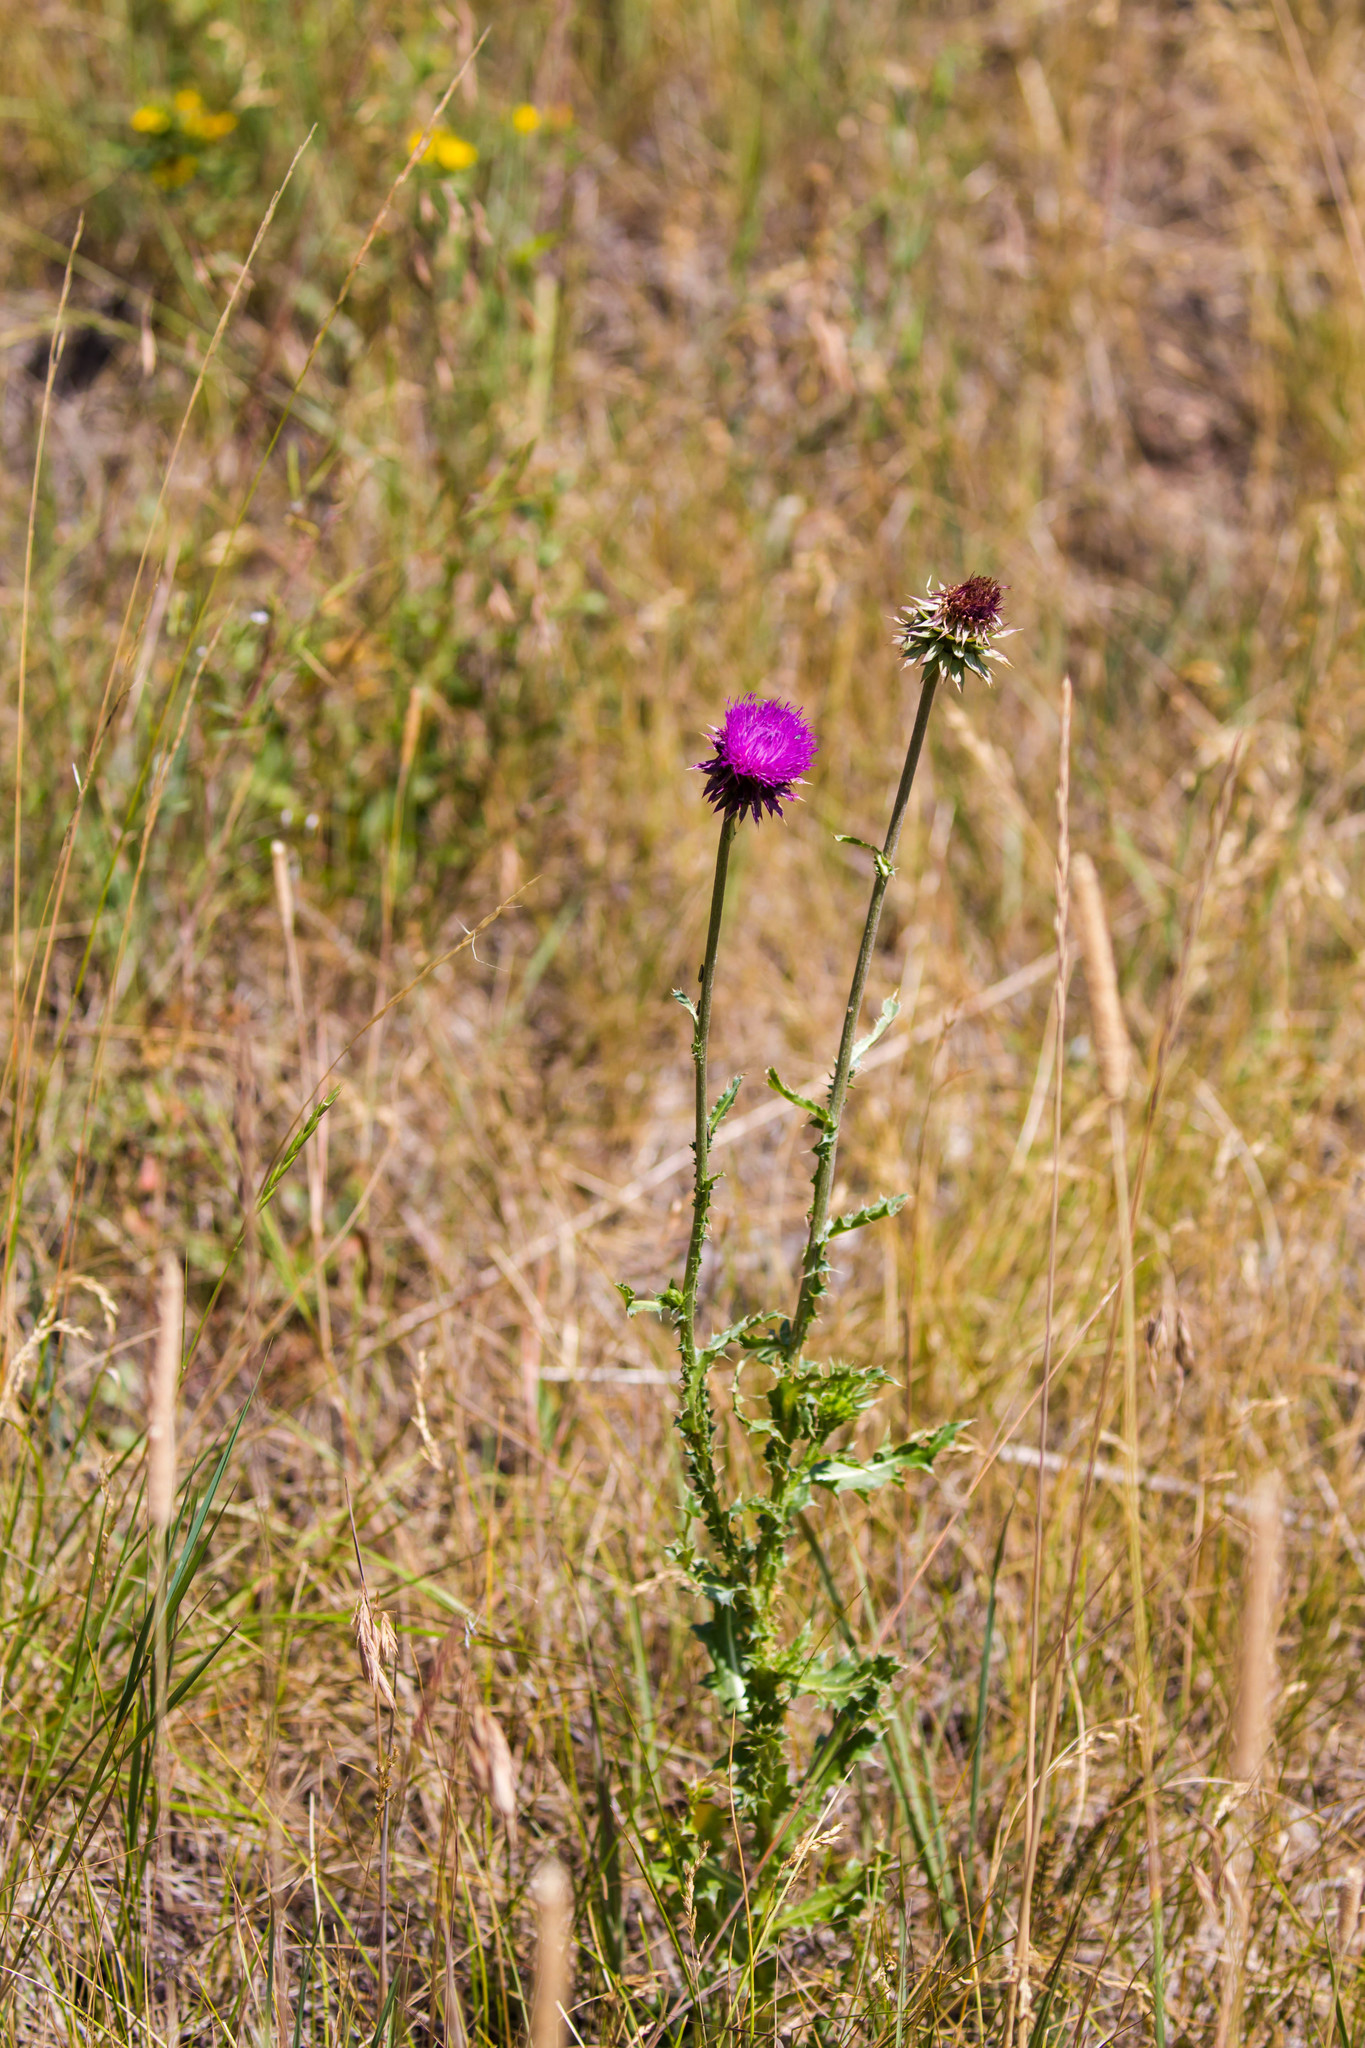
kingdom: Plantae
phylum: Tracheophyta
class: Magnoliopsida
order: Asterales
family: Asteraceae
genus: Carduus
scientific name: Carduus nutans
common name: Musk thistle
